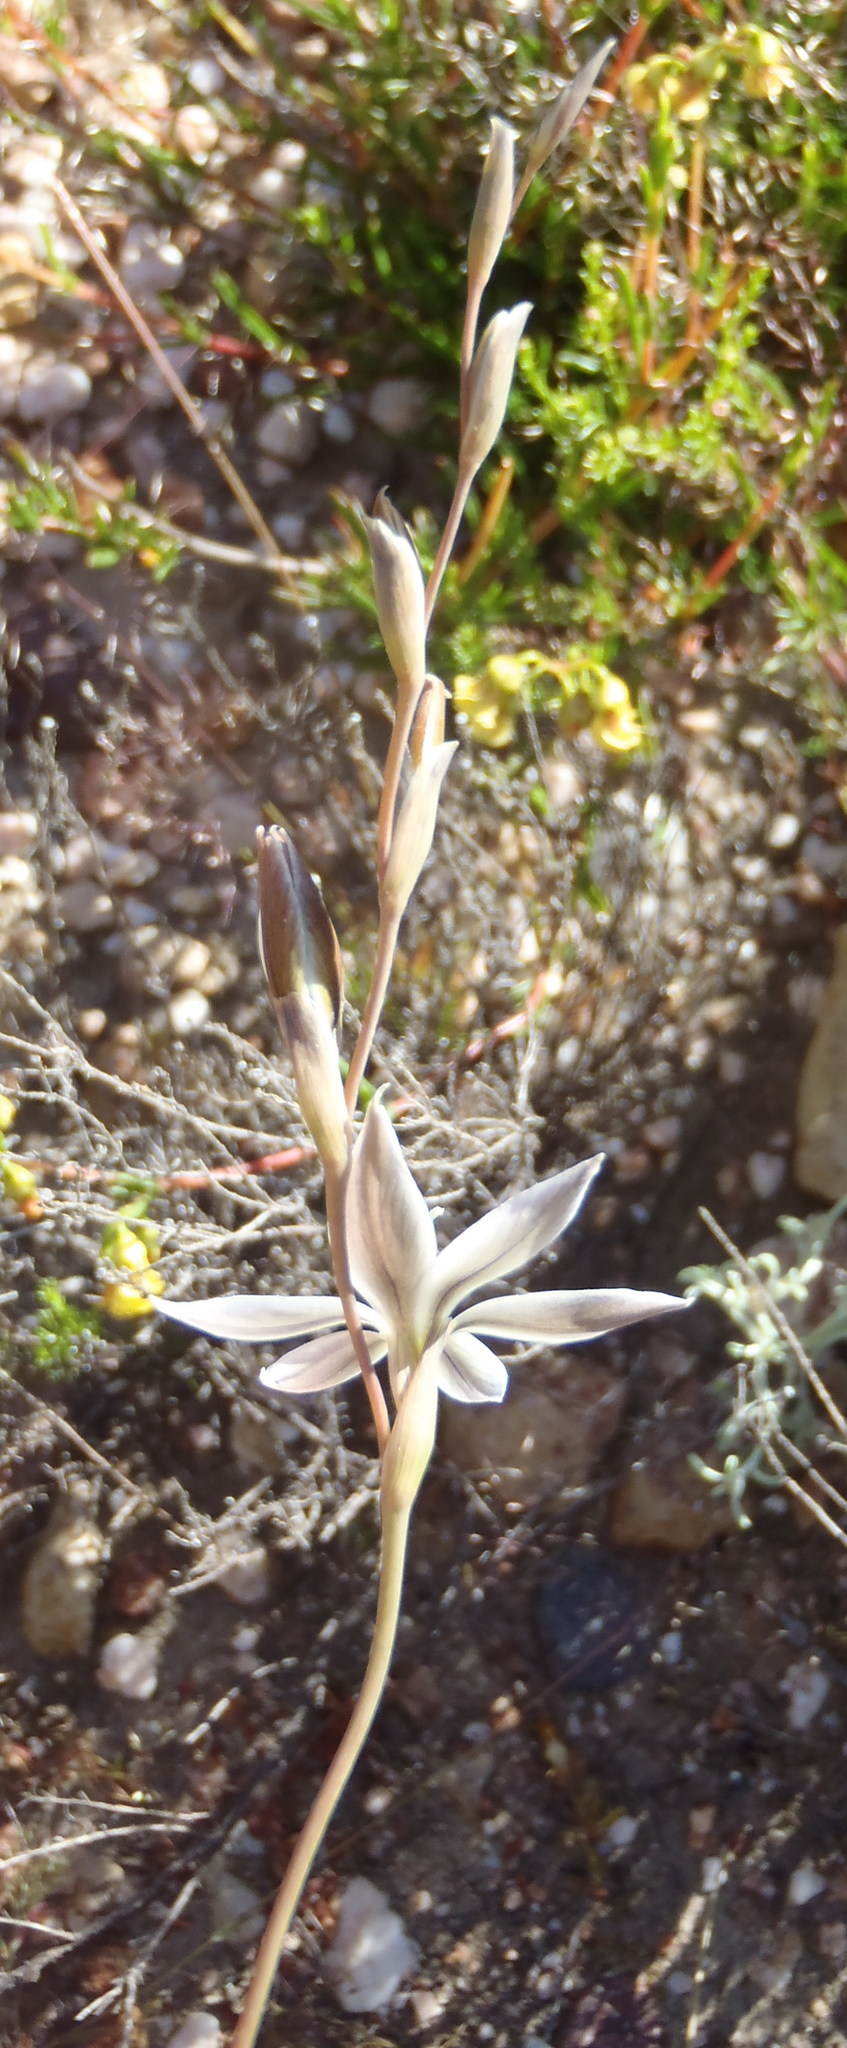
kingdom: Plantae
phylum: Tracheophyta
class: Liliopsida
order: Asparagales
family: Iridaceae
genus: Gladiolus
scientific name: Gladiolus stellatus
